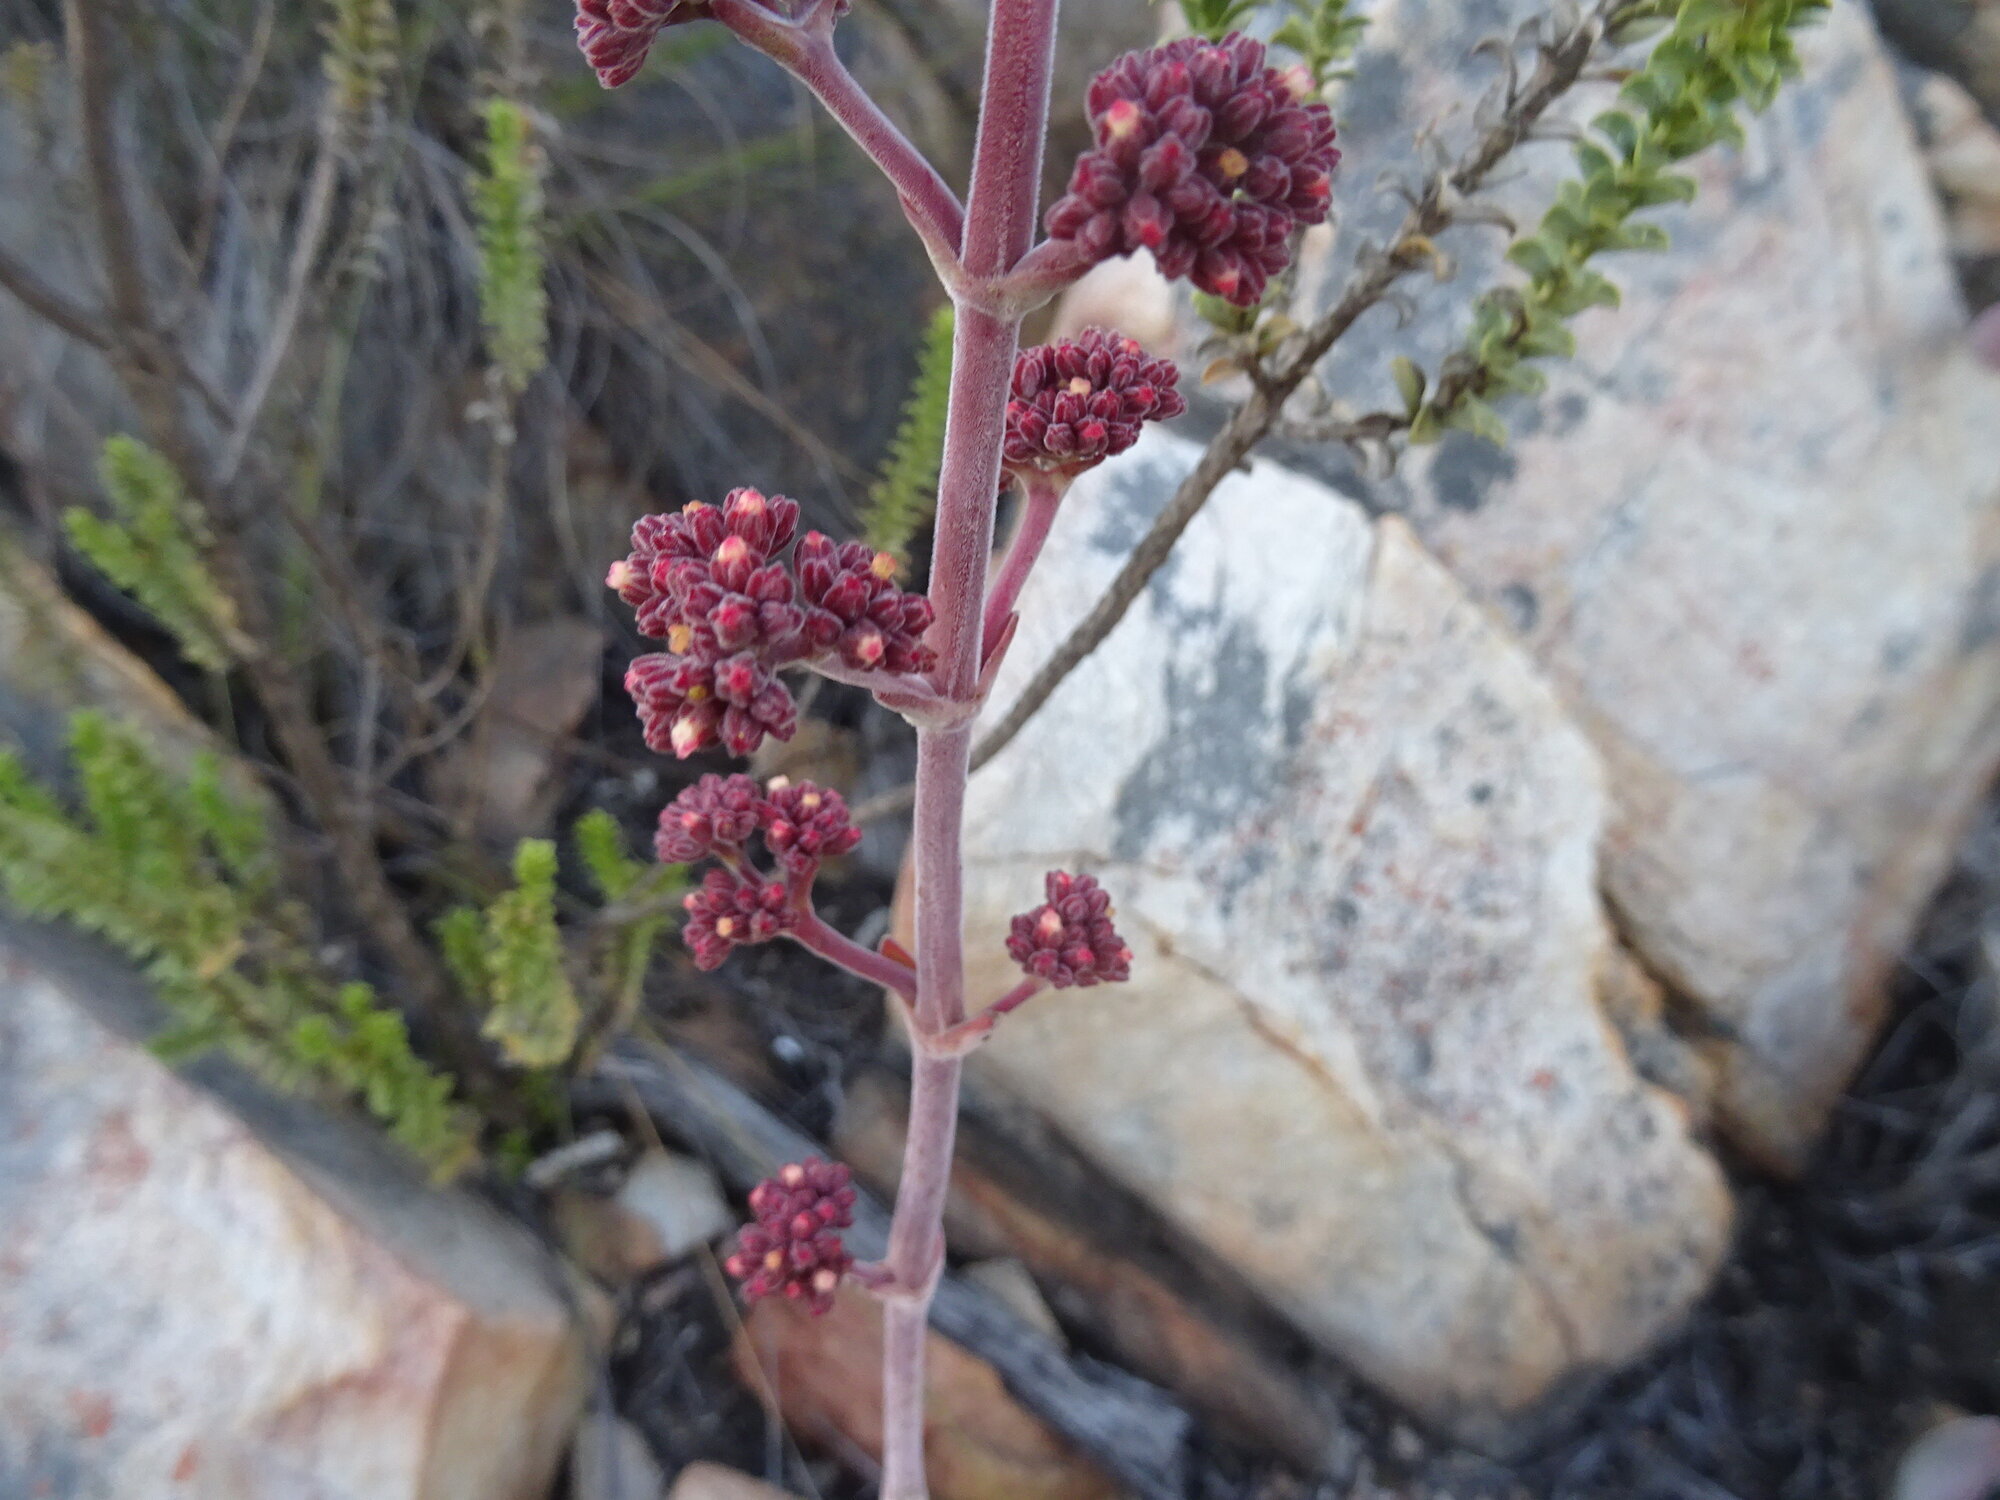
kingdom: Plantae
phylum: Tracheophyta
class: Magnoliopsida
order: Saxifragales
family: Crassulaceae
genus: Crassula
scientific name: Crassula cotyledonis
